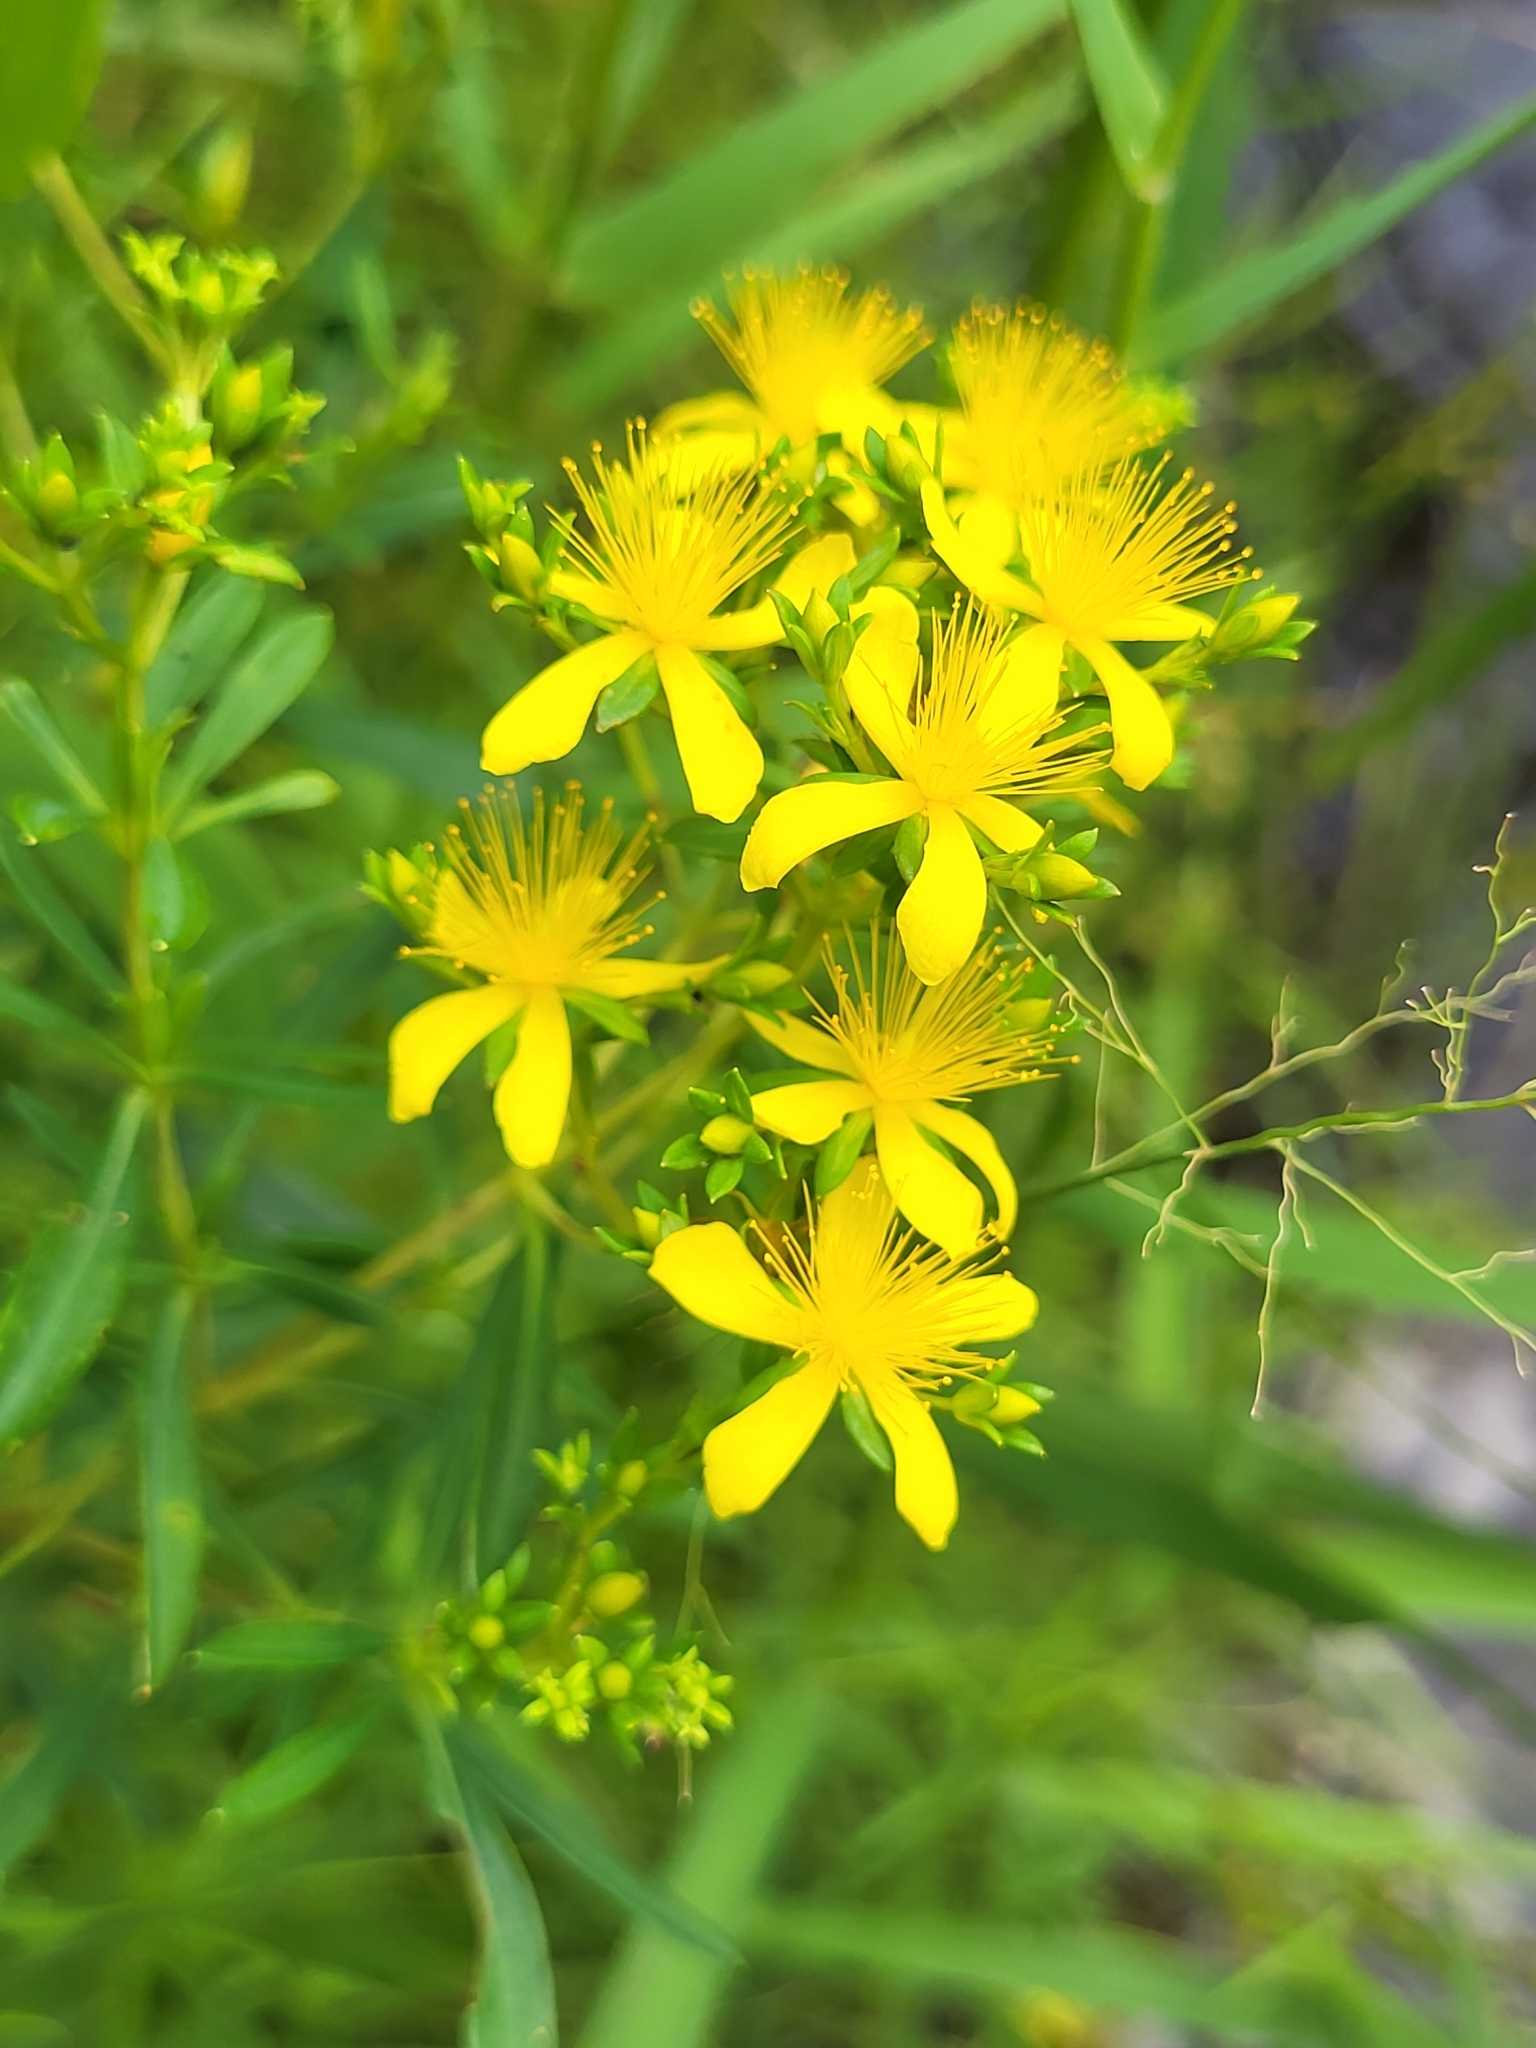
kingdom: Plantae
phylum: Tracheophyta
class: Magnoliopsida
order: Malpighiales
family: Hypericaceae
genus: Hypericum
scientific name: Hypericum densiflorum
